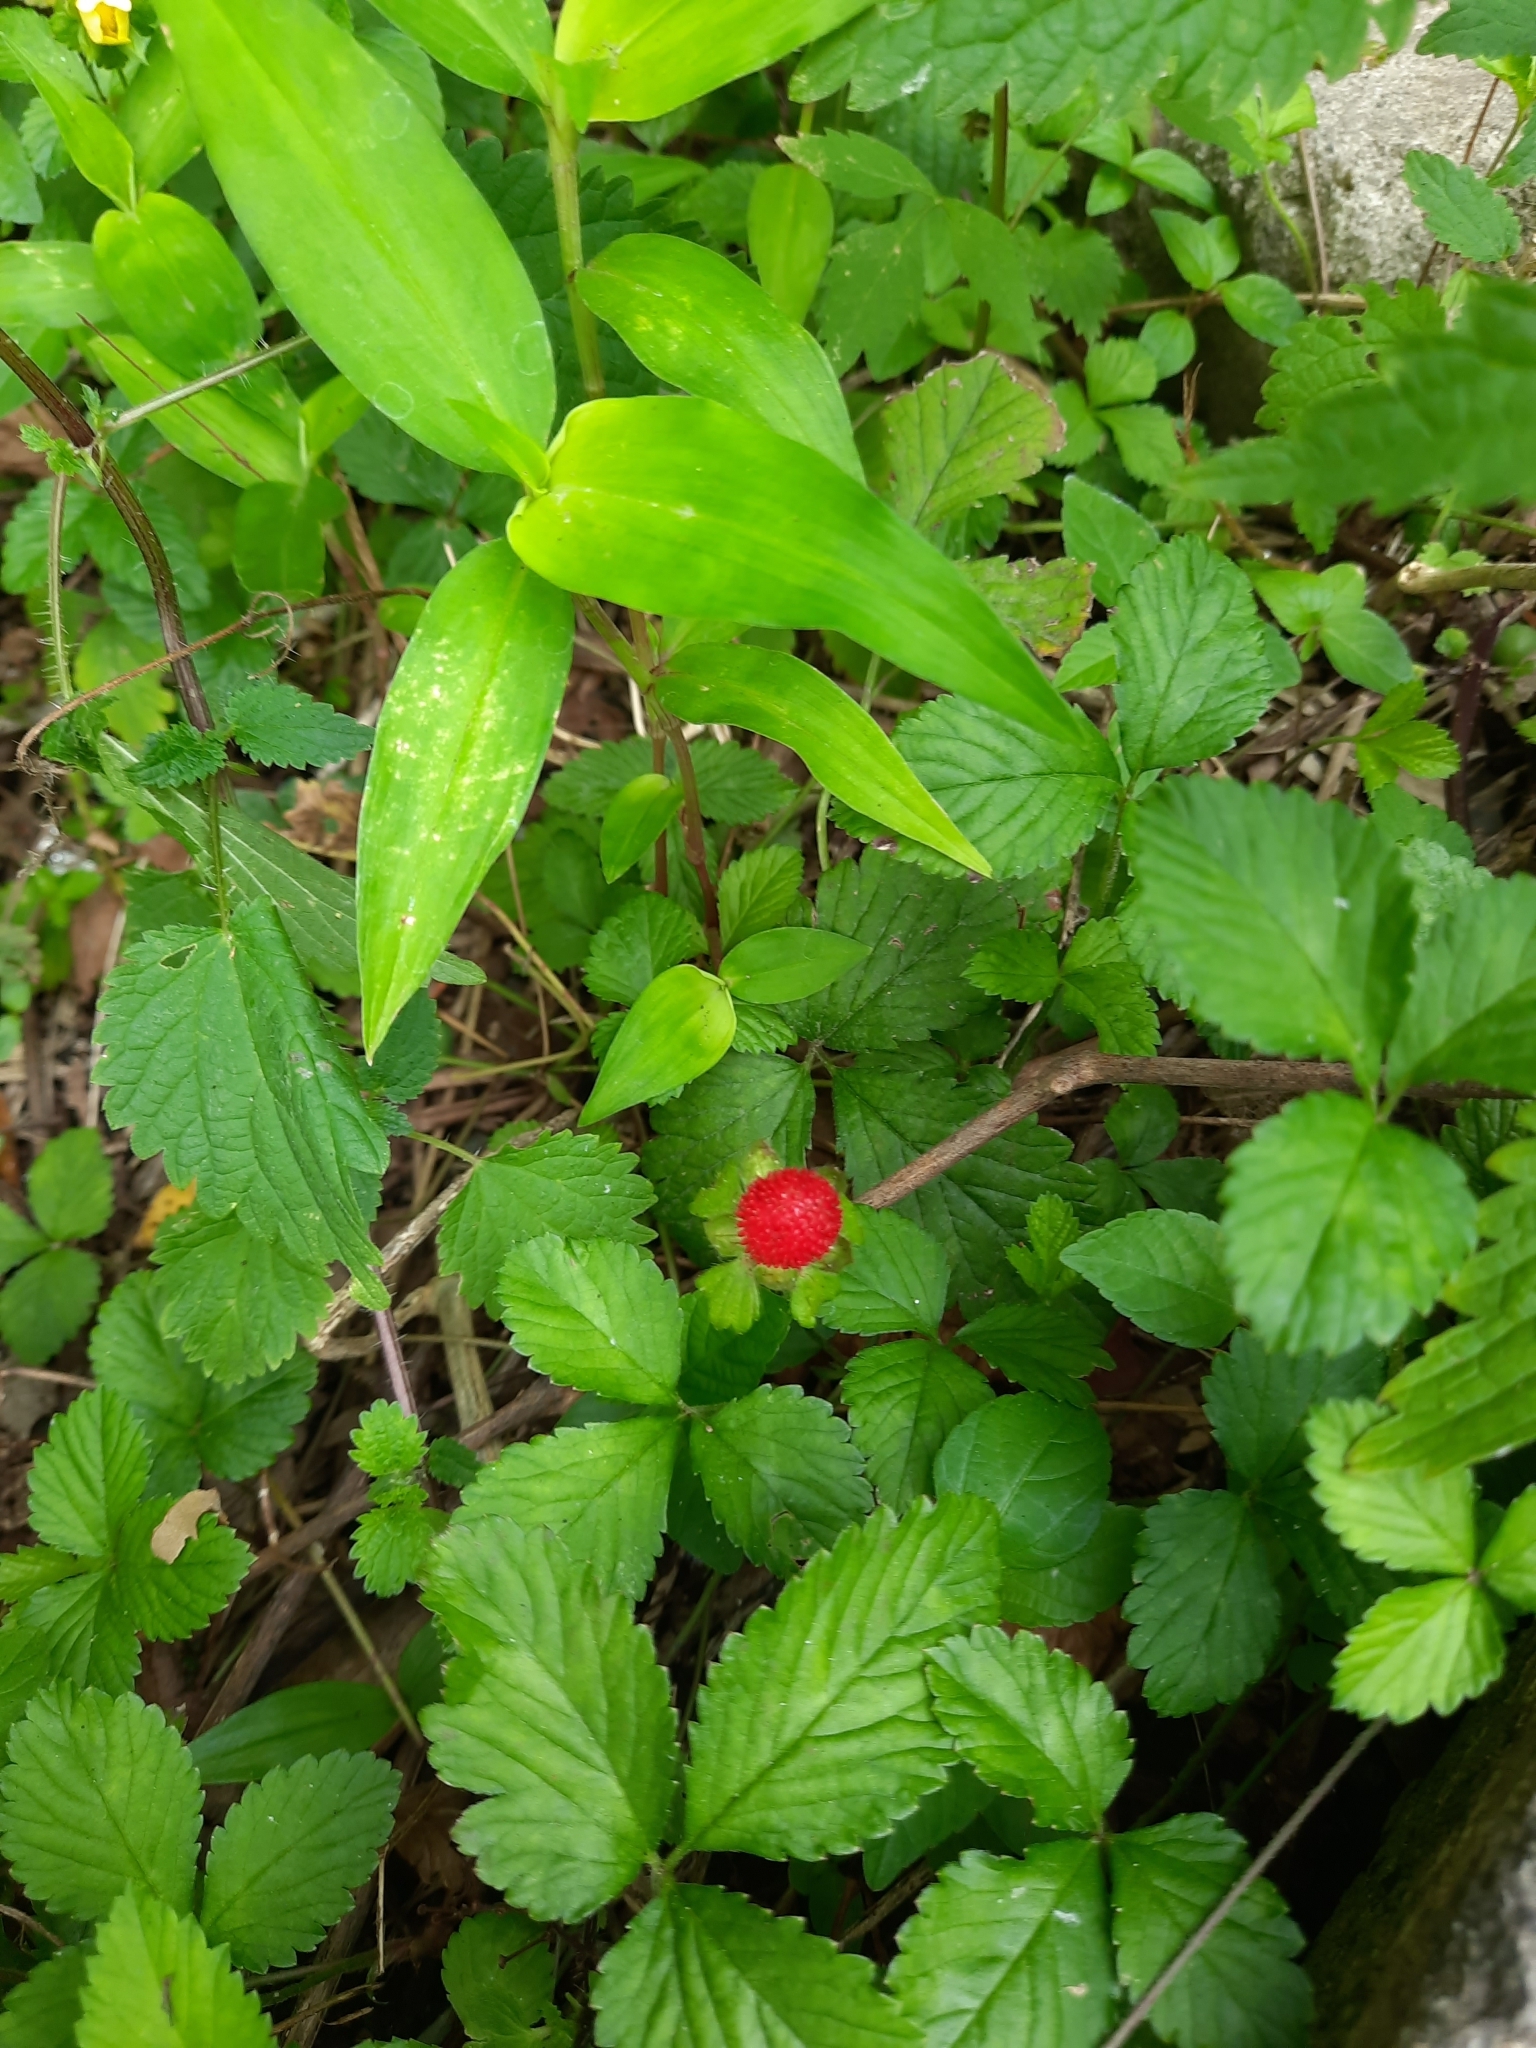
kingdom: Plantae
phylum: Tracheophyta
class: Magnoliopsida
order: Rosales
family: Rosaceae
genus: Potentilla
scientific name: Potentilla indica
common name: Yellow-flowered strawberry
